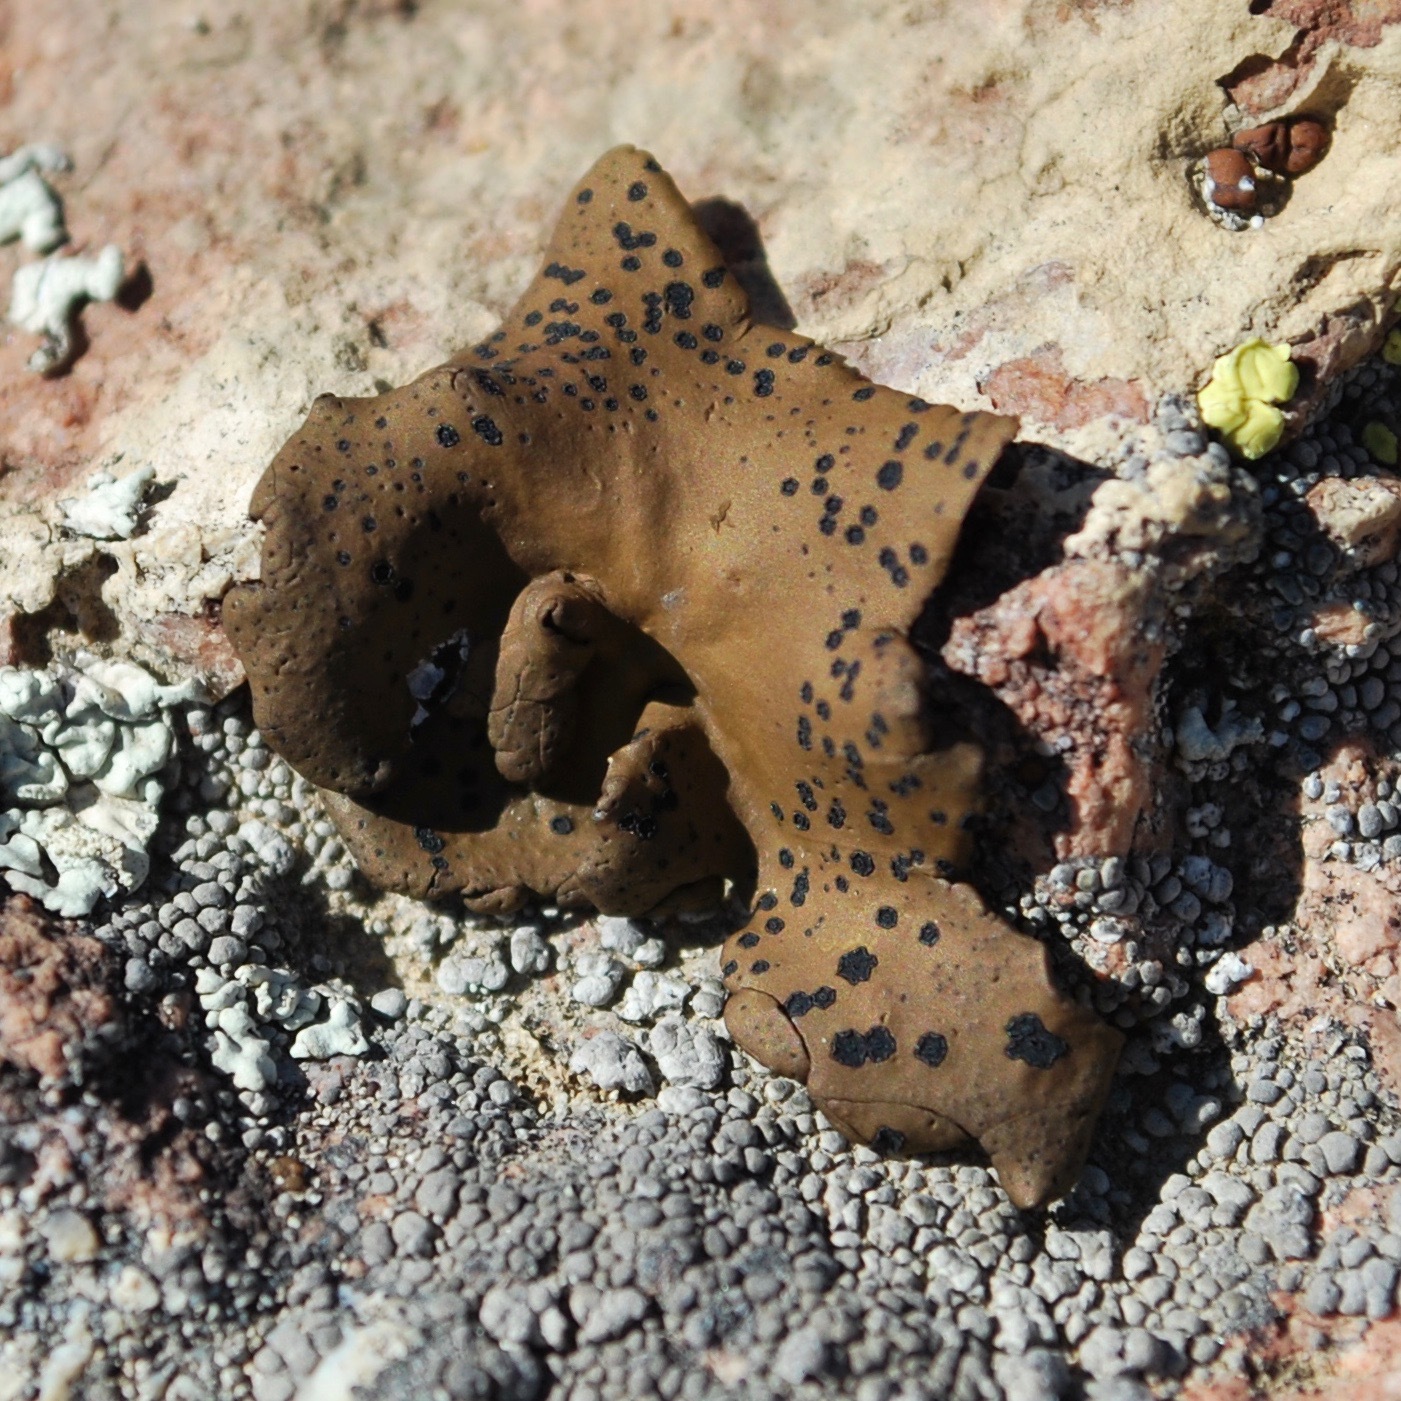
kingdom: Fungi
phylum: Ascomycota
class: Lecanoromycetes
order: Umbilicariales
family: Umbilicariaceae
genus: Umbilicaria
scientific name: Umbilicaria phaea
